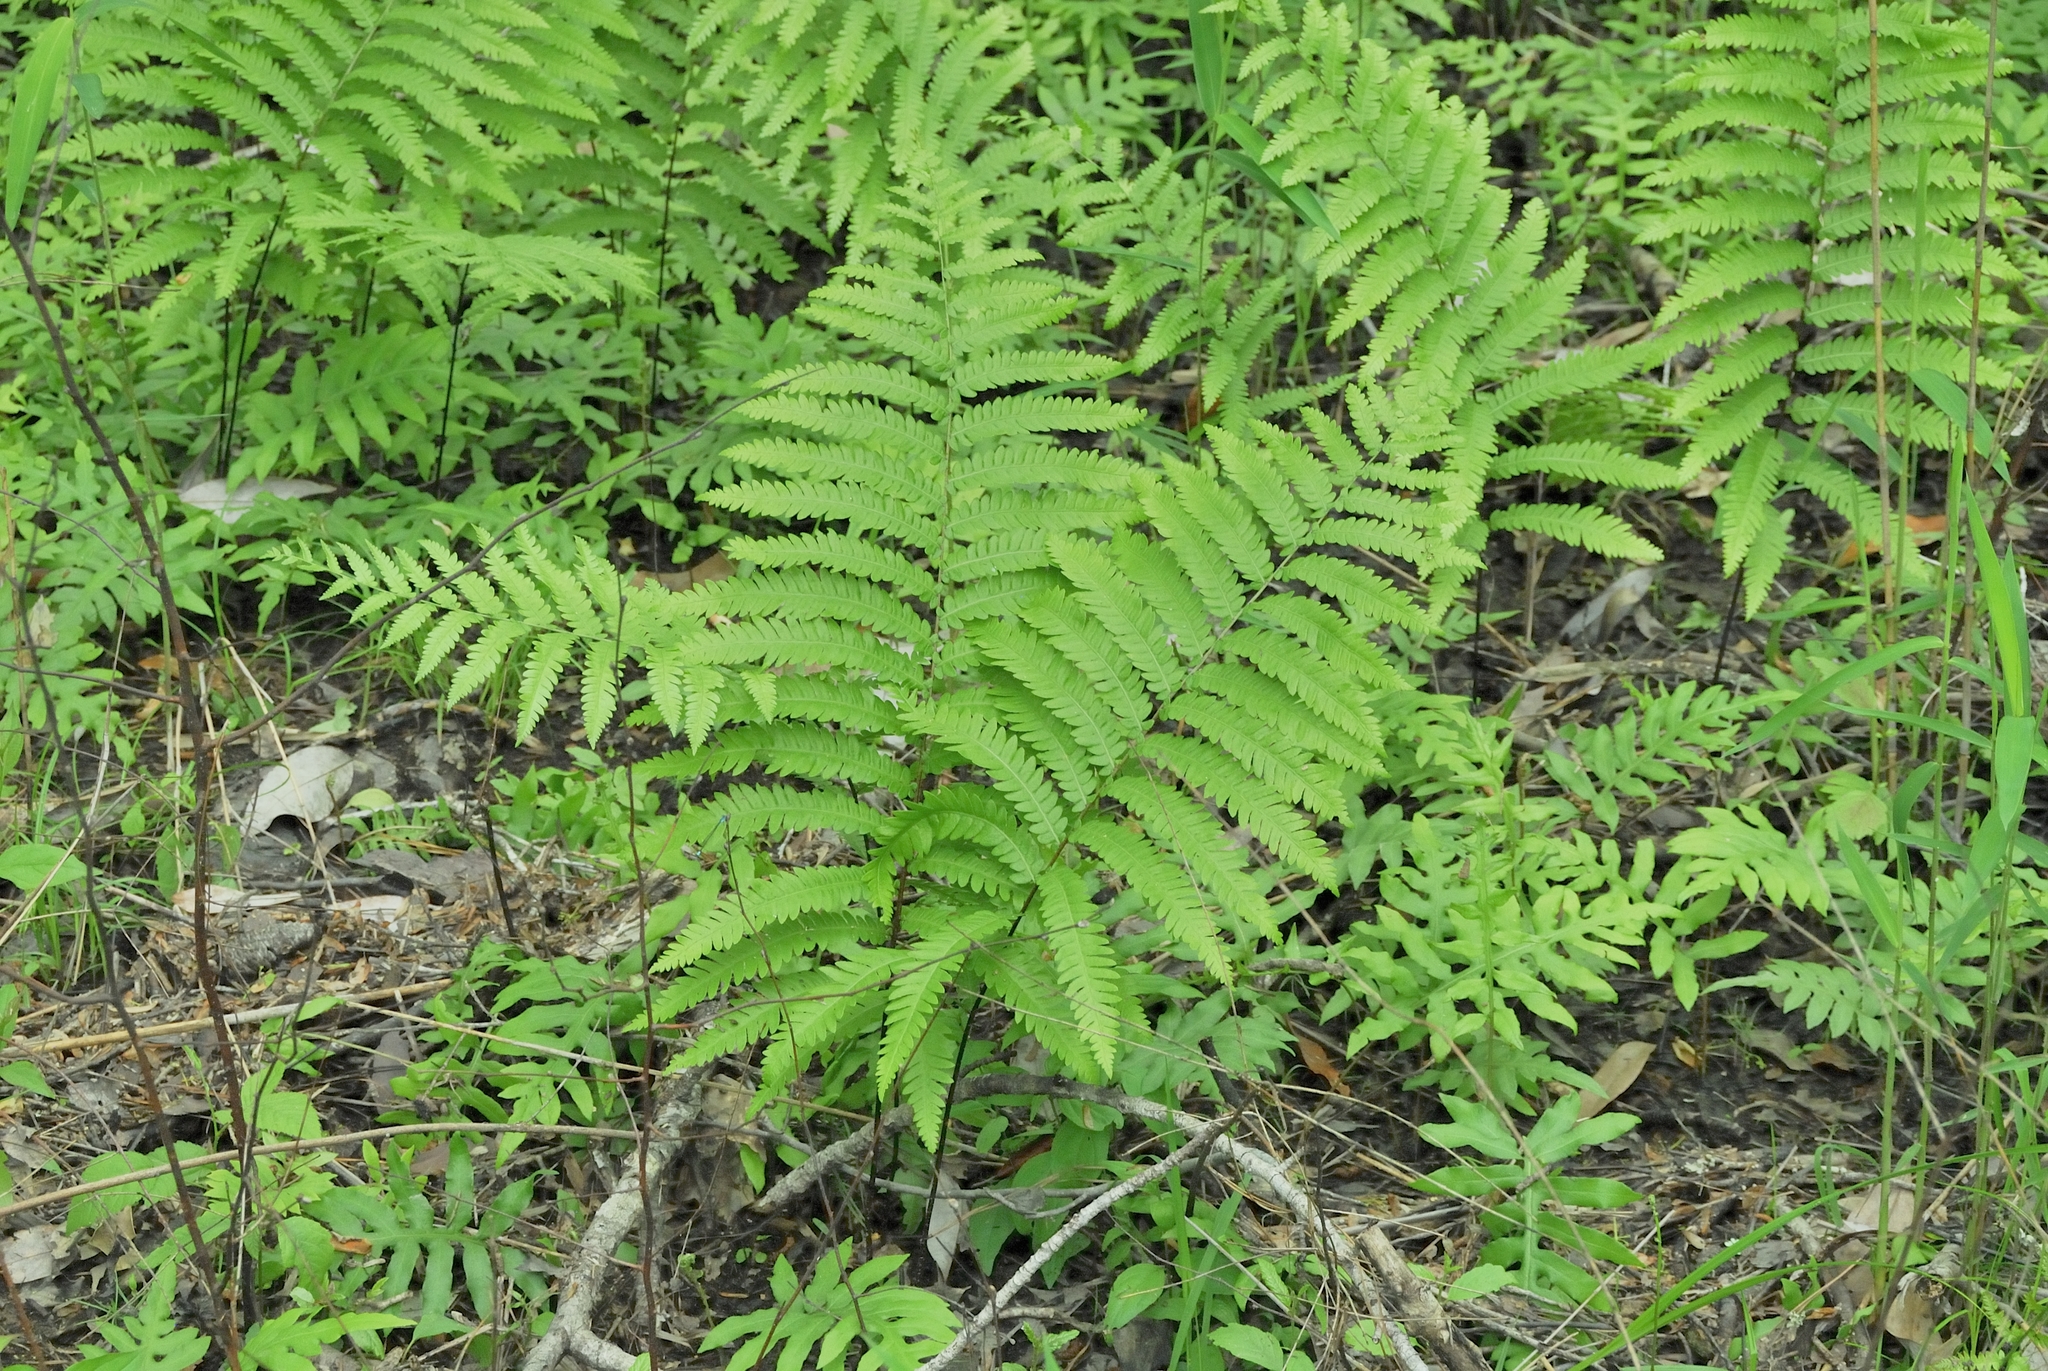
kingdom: Plantae
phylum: Tracheophyta
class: Polypodiopsida
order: Polypodiales
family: Blechnaceae
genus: Anchistea
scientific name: Anchistea virginica
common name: Virginia chain fern
